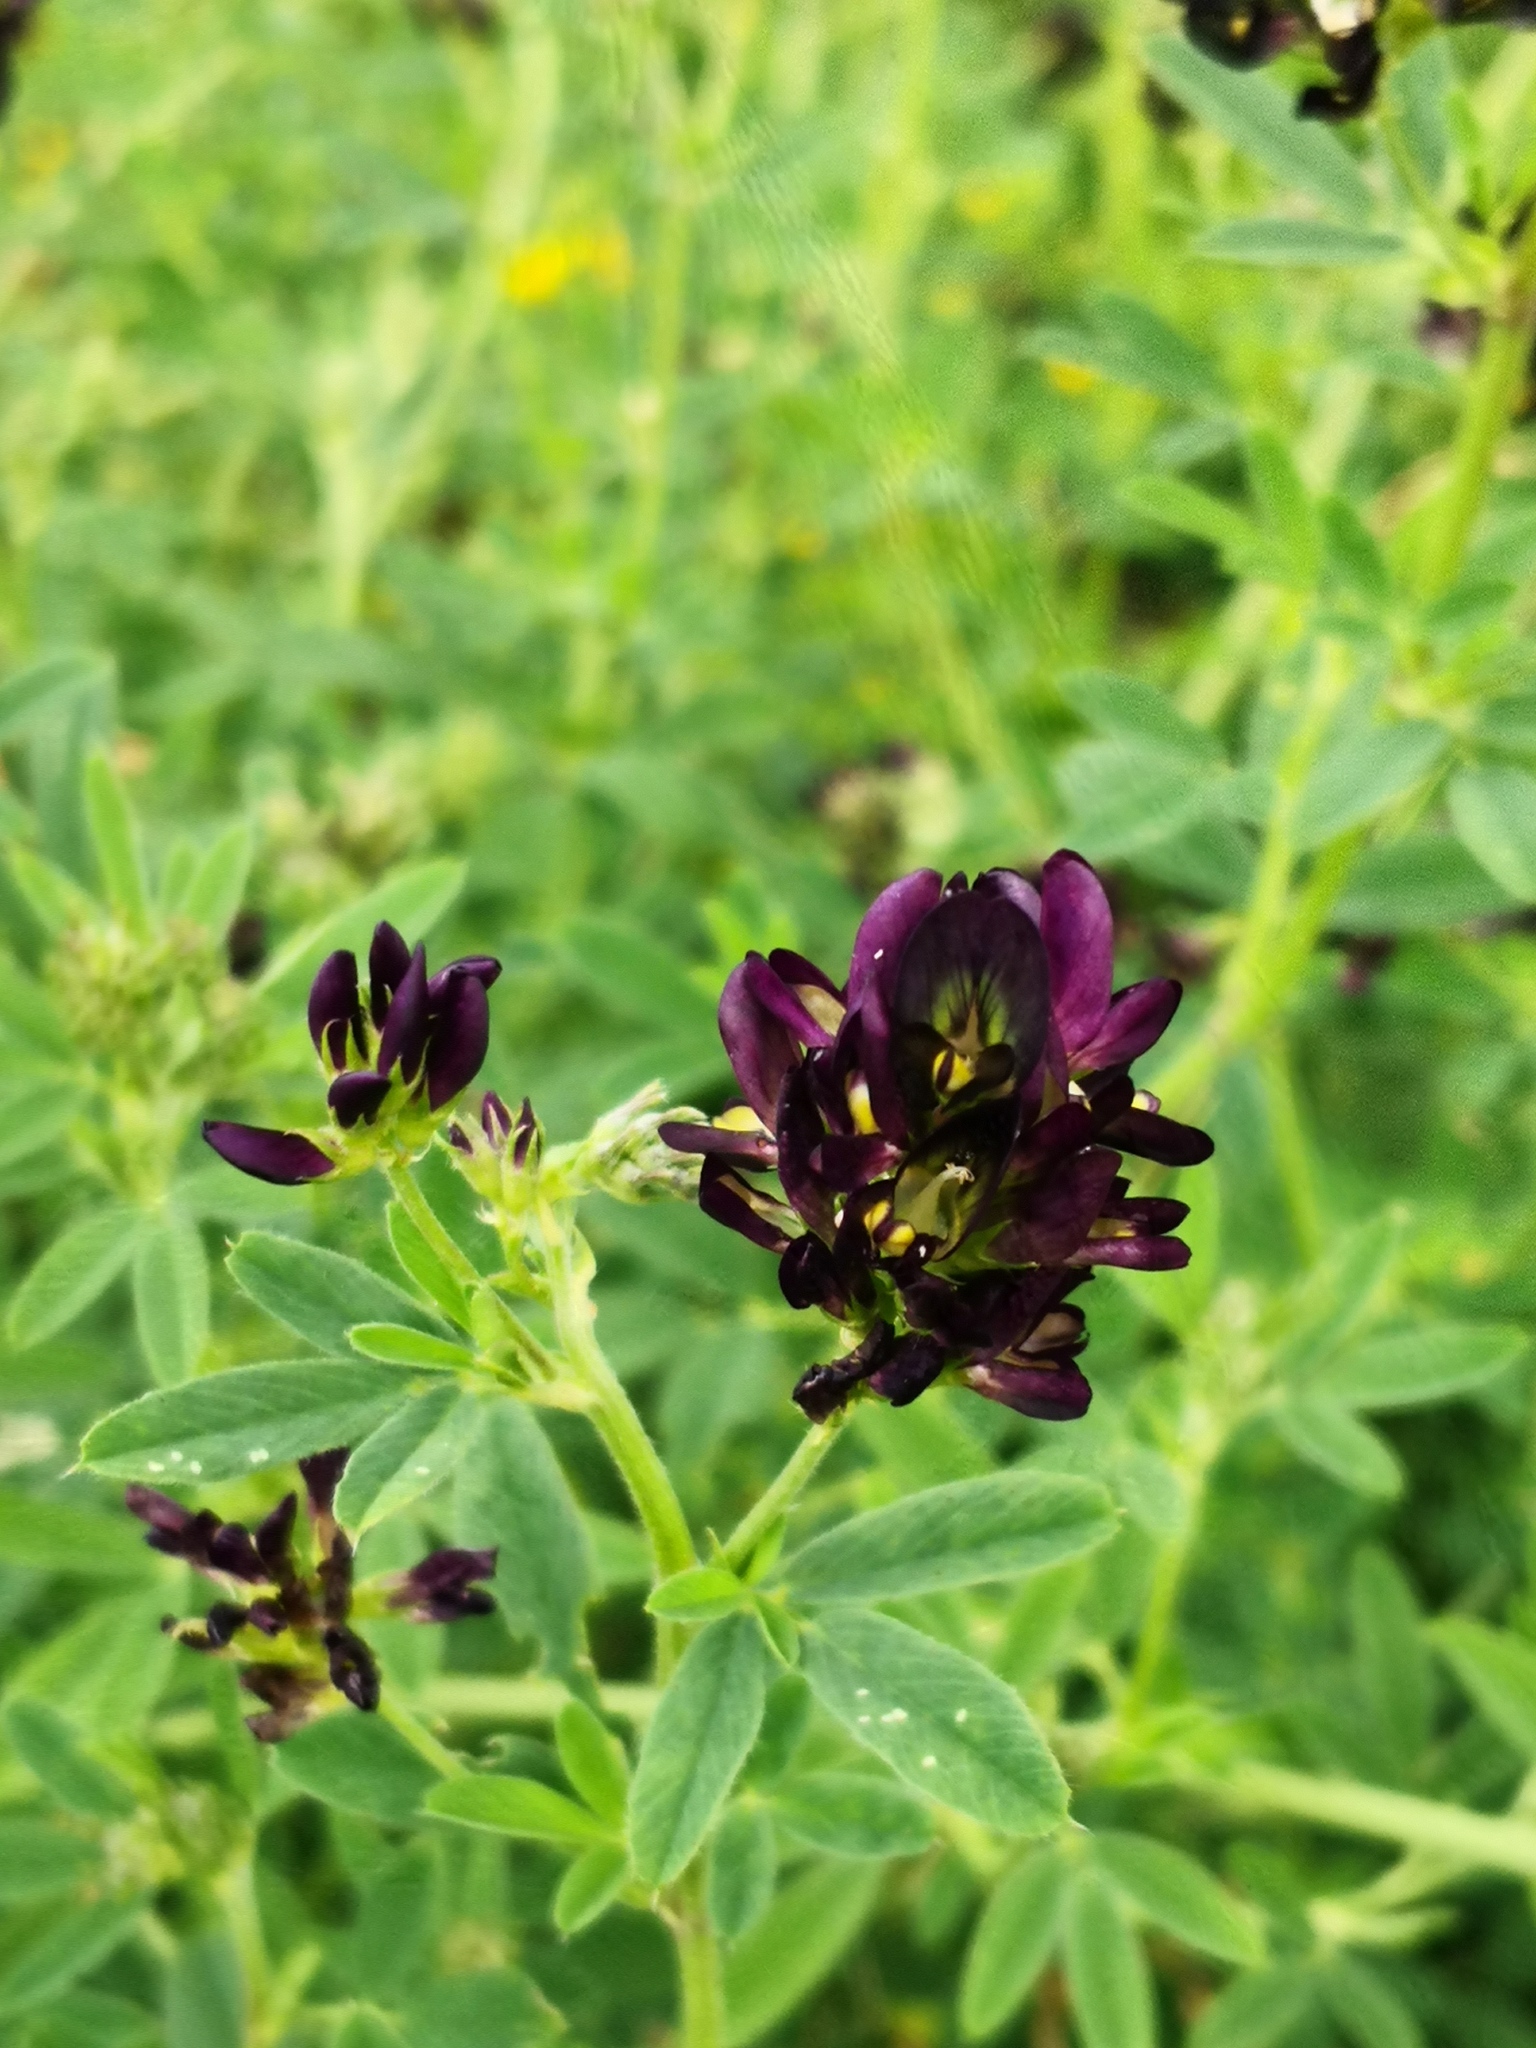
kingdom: Plantae
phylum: Tracheophyta
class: Magnoliopsida
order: Fabales
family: Fabaceae
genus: Medicago
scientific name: Medicago varia
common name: Sand lucerne
